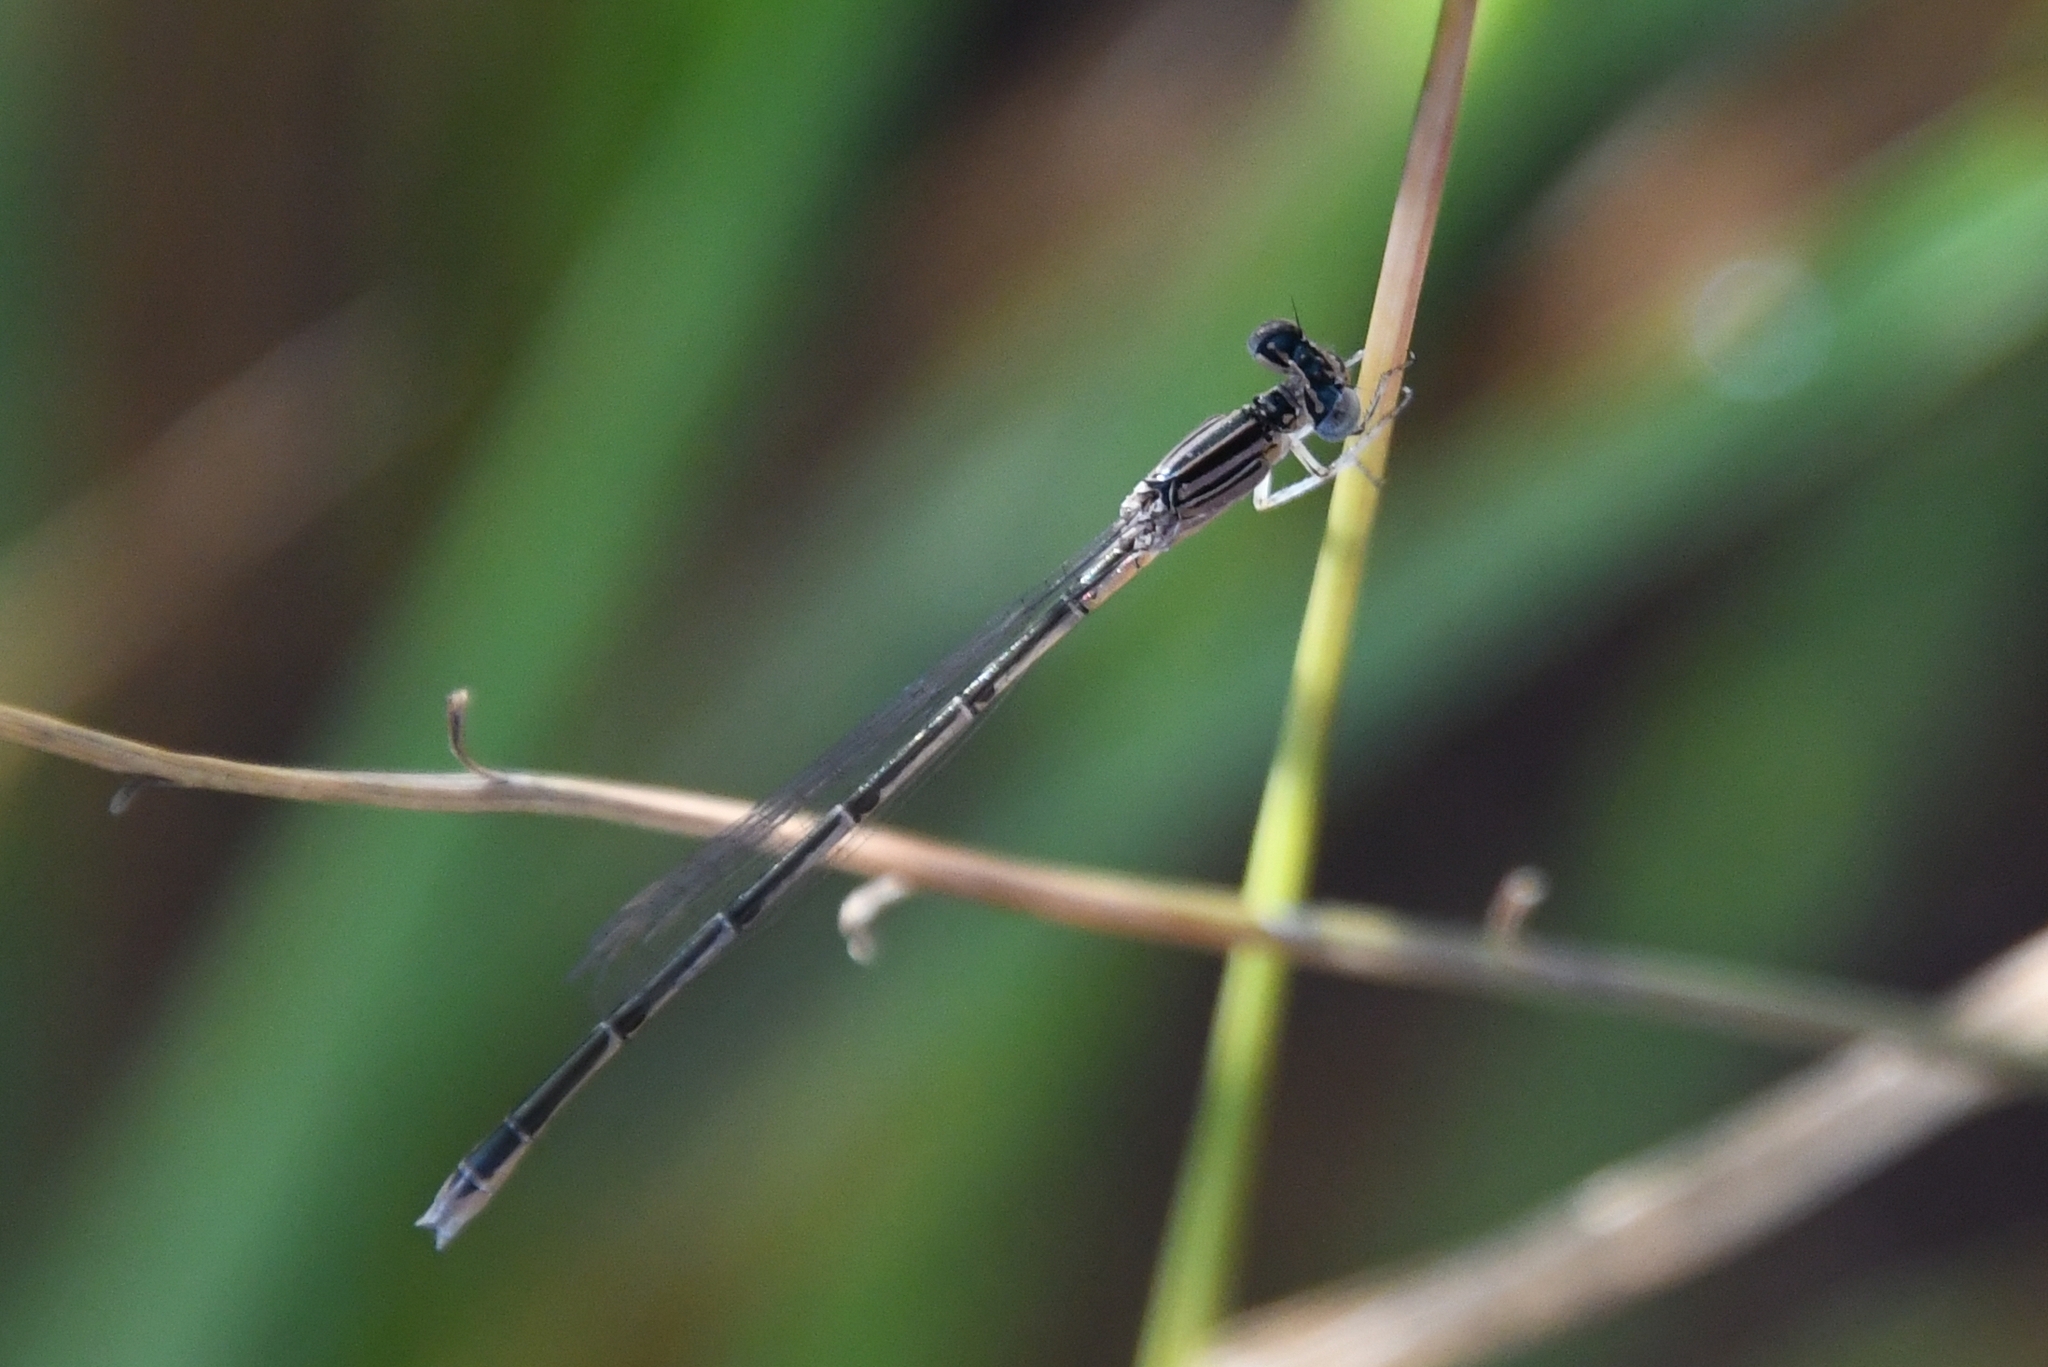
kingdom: Animalia
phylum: Arthropoda
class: Insecta
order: Odonata
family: Coenagrionidae
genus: Enallagma
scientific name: Enallagma basidens
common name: Double-striped bluet
